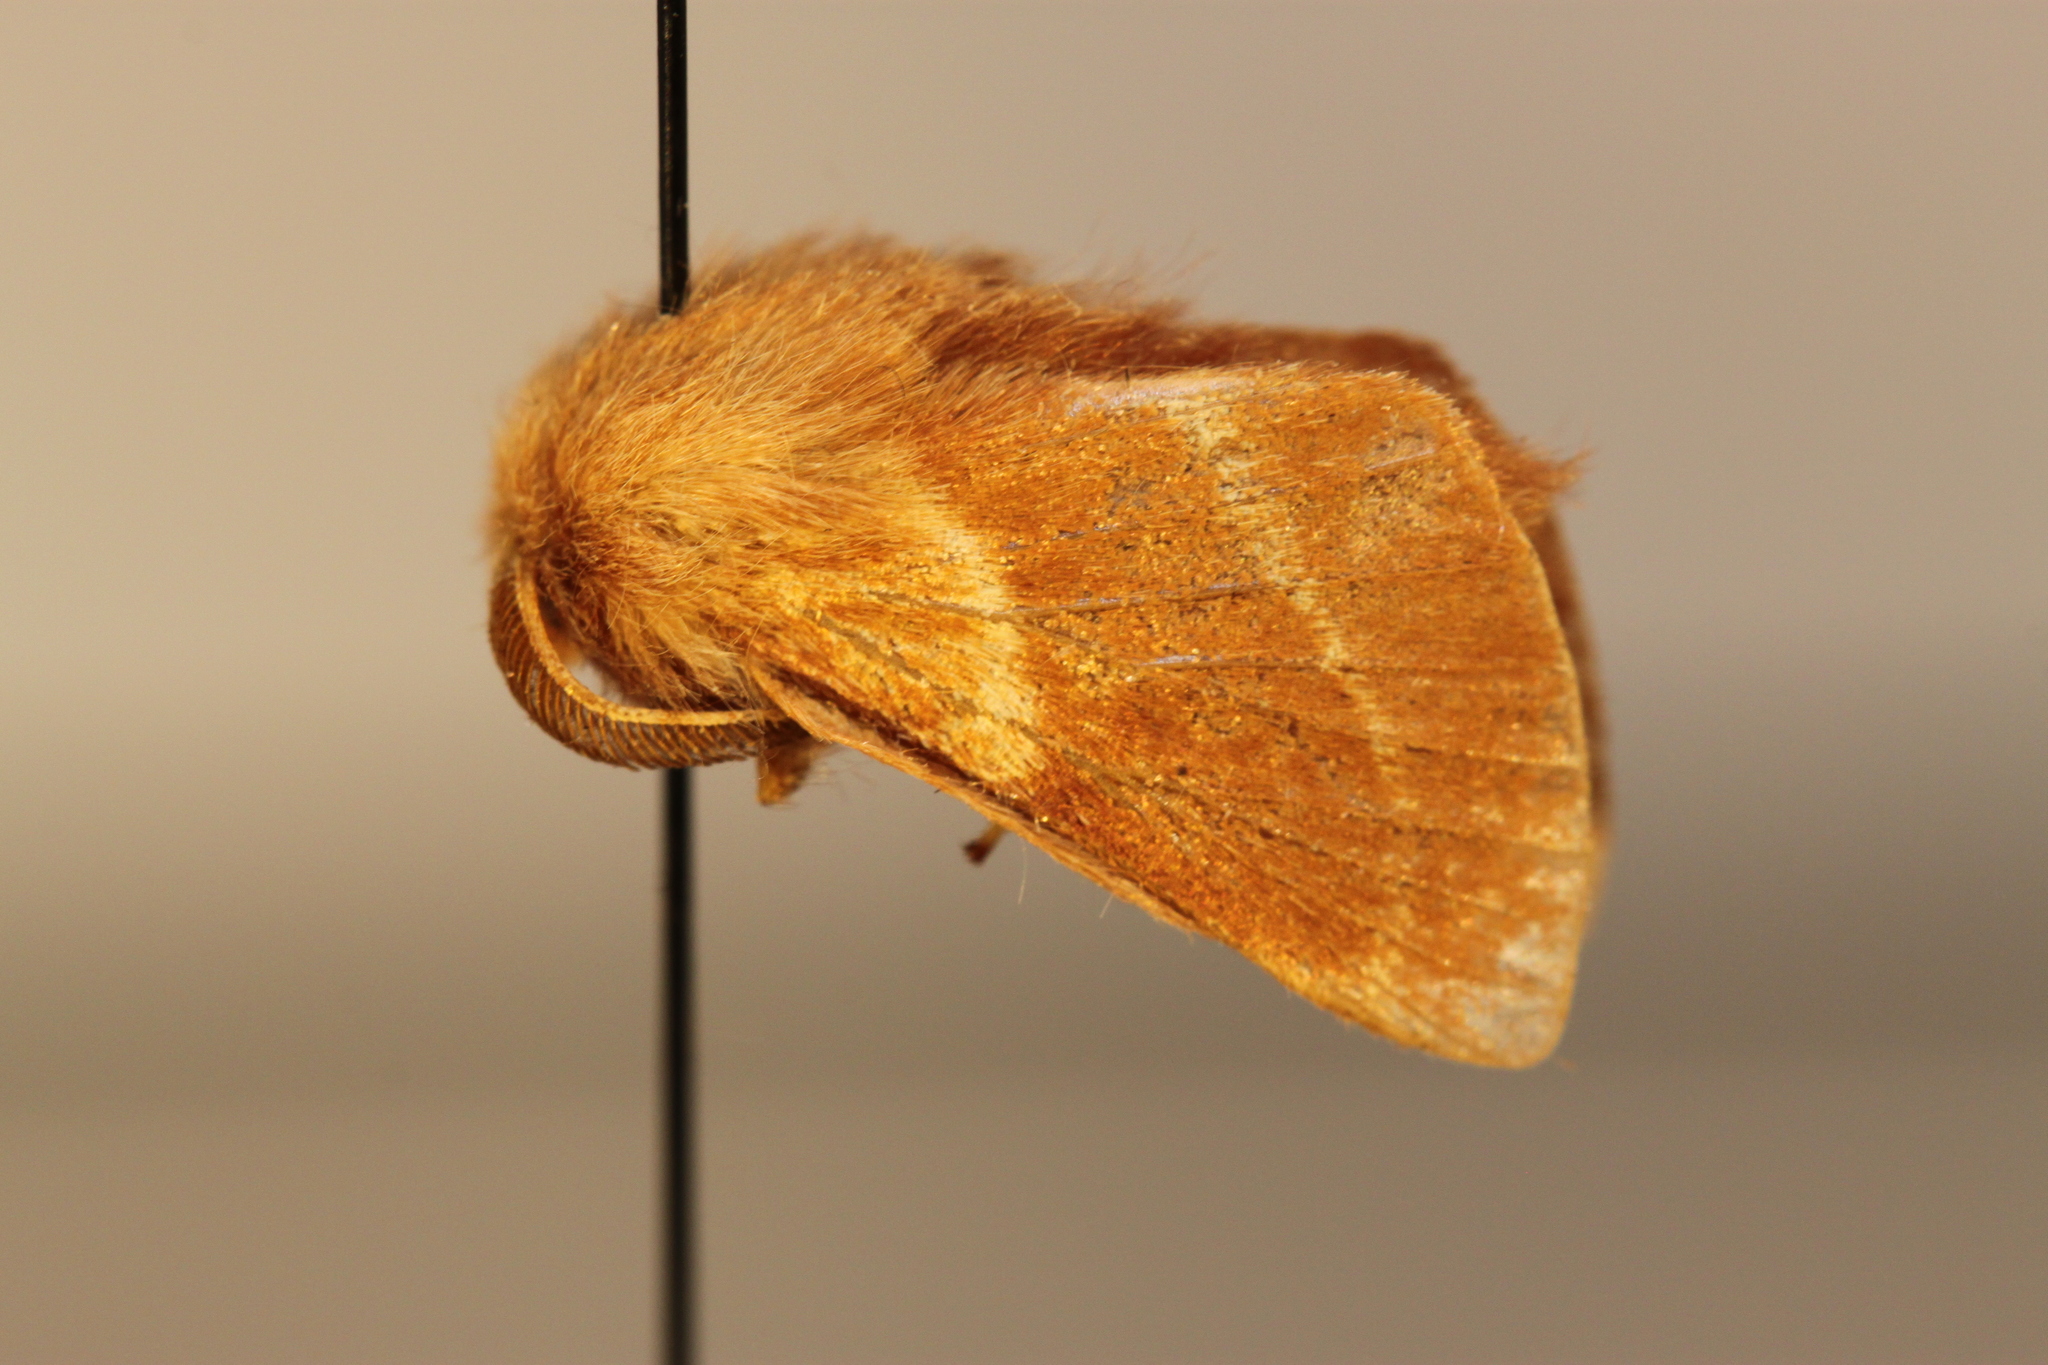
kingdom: Animalia
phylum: Arthropoda
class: Insecta
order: Lepidoptera
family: Lasiocampidae
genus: Malacosoma
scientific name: Malacosoma disstria
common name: Forest tent caterpillar
